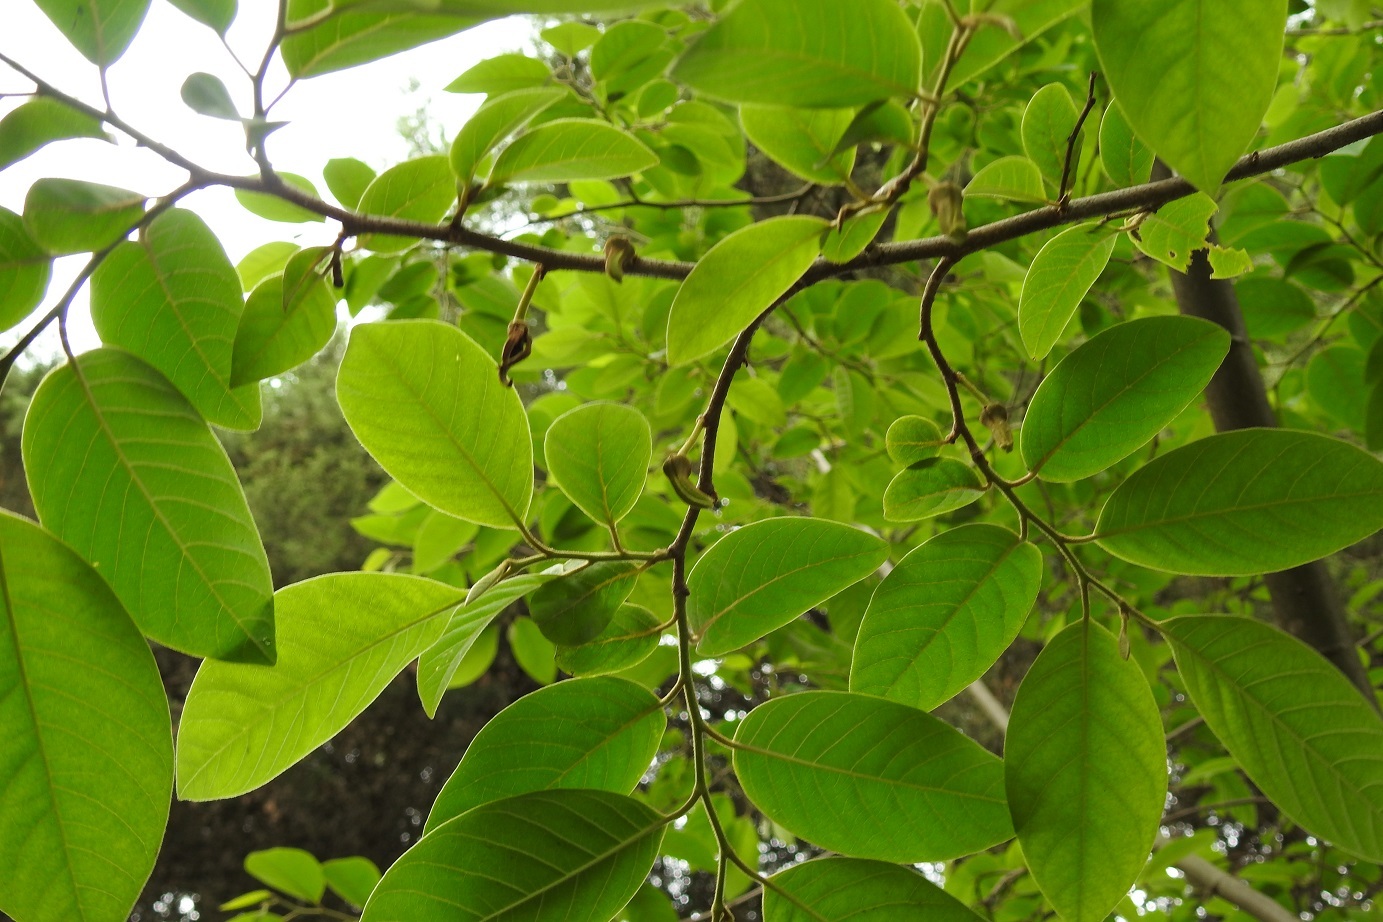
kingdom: Plantae
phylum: Tracheophyta
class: Magnoliopsida
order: Magnoliales
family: Annonaceae
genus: Annona
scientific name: Annona cherimola
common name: Cherimoya
